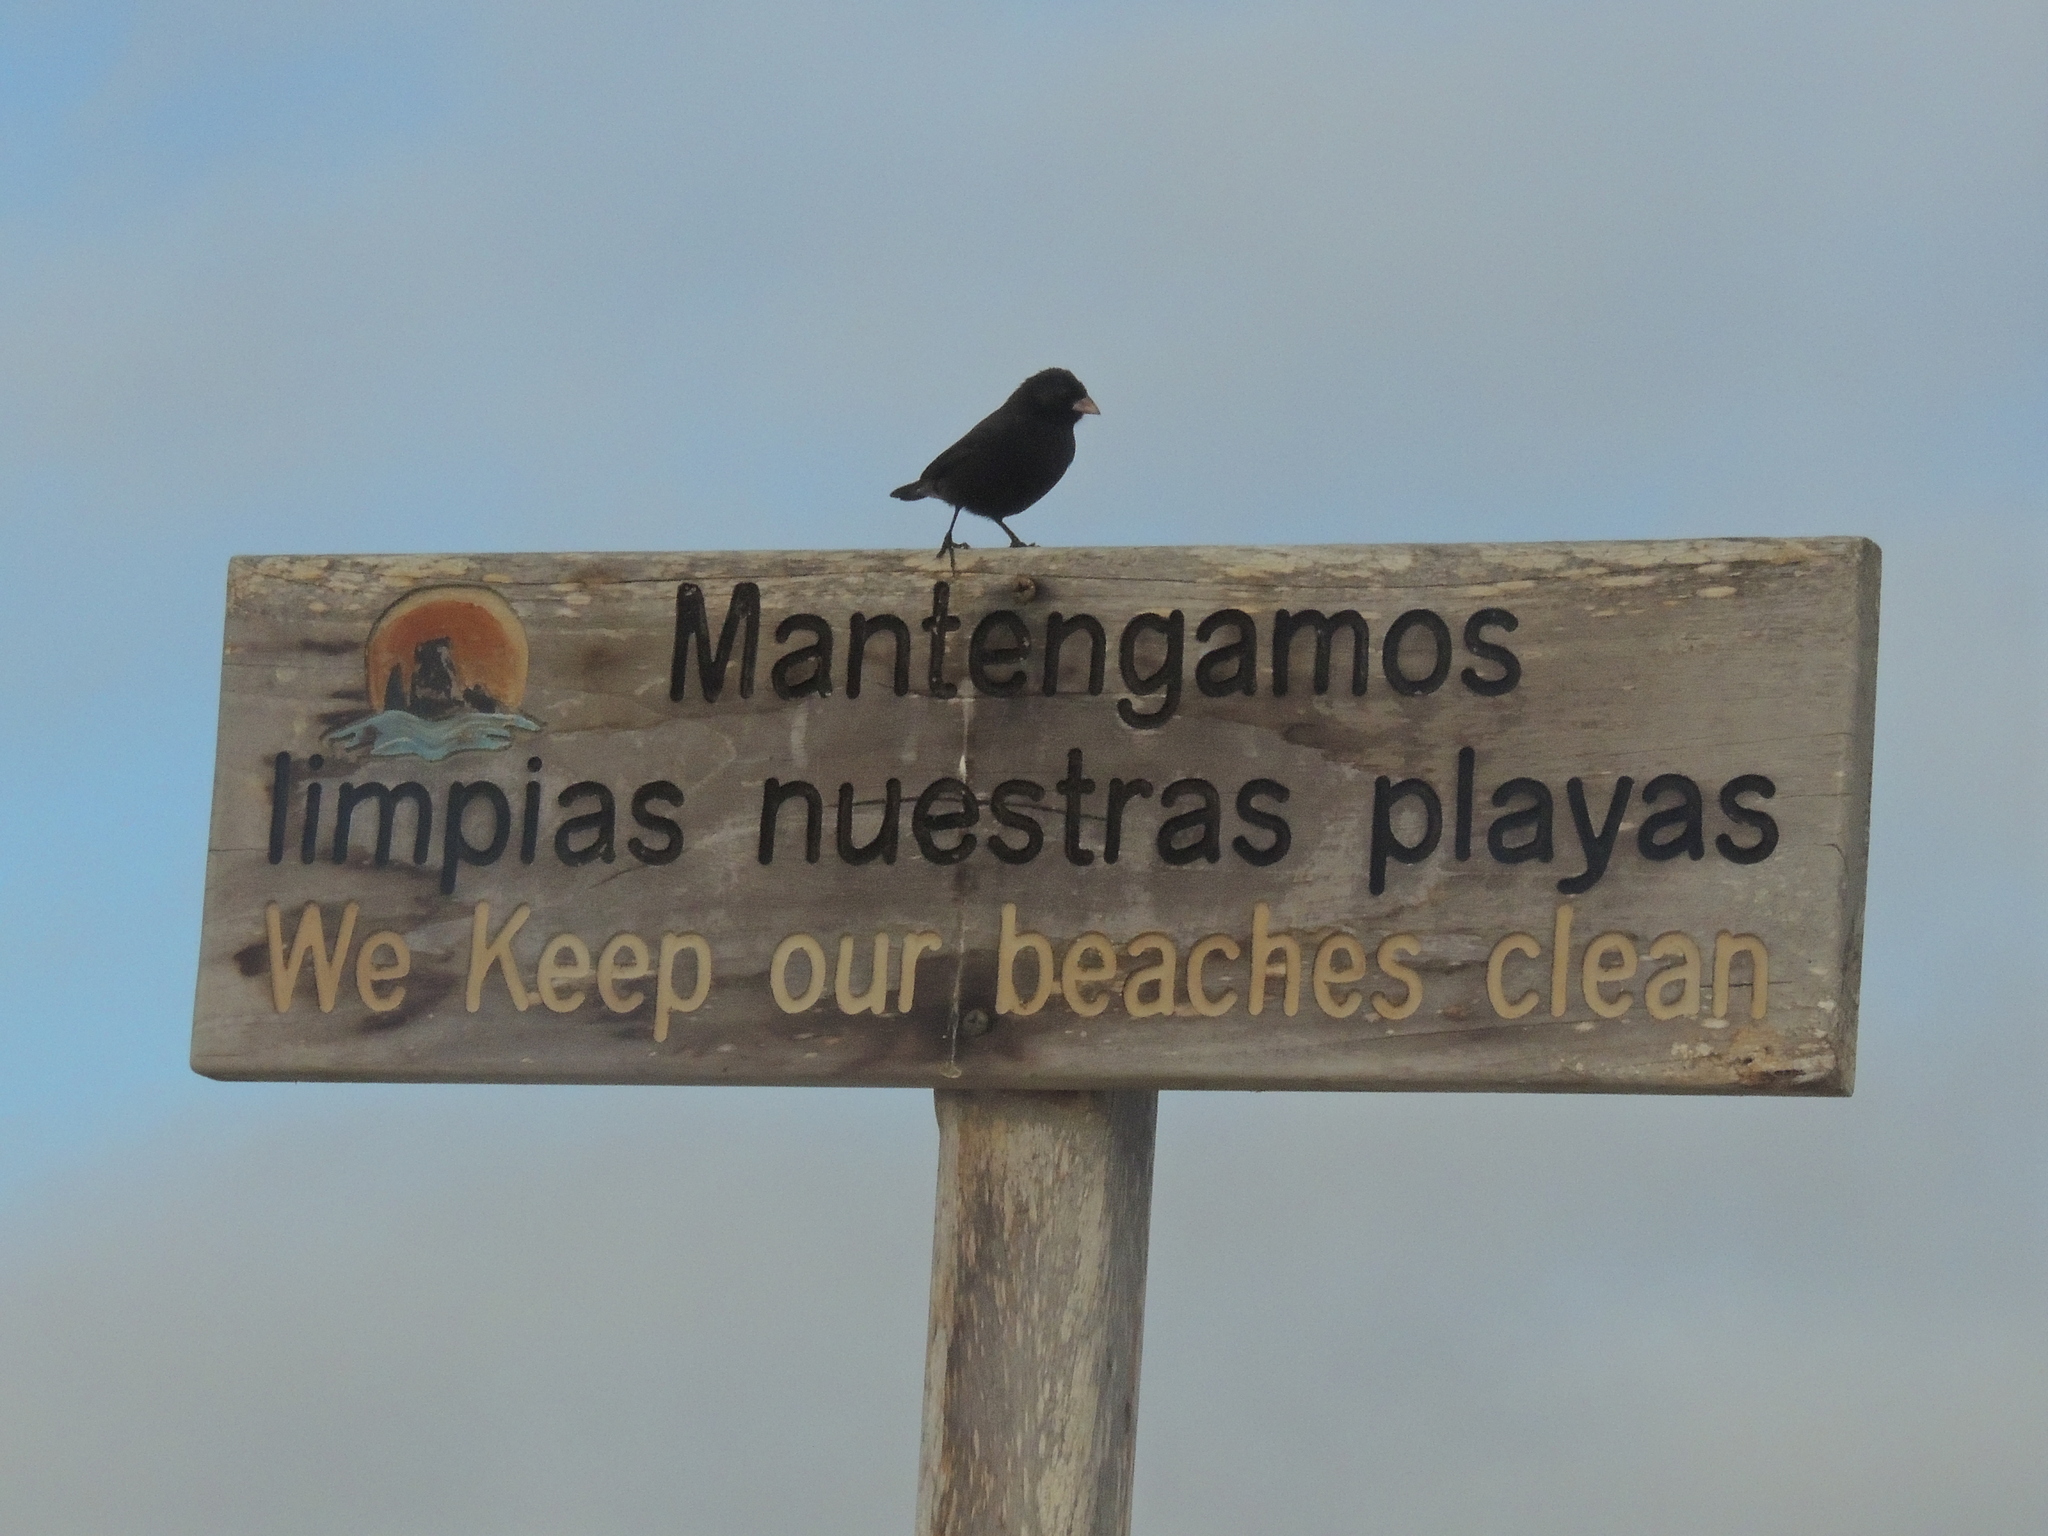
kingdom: Animalia
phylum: Chordata
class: Aves
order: Passeriformes
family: Thraupidae
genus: Geospiza
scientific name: Geospiza fuliginosa
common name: Small ground finch
